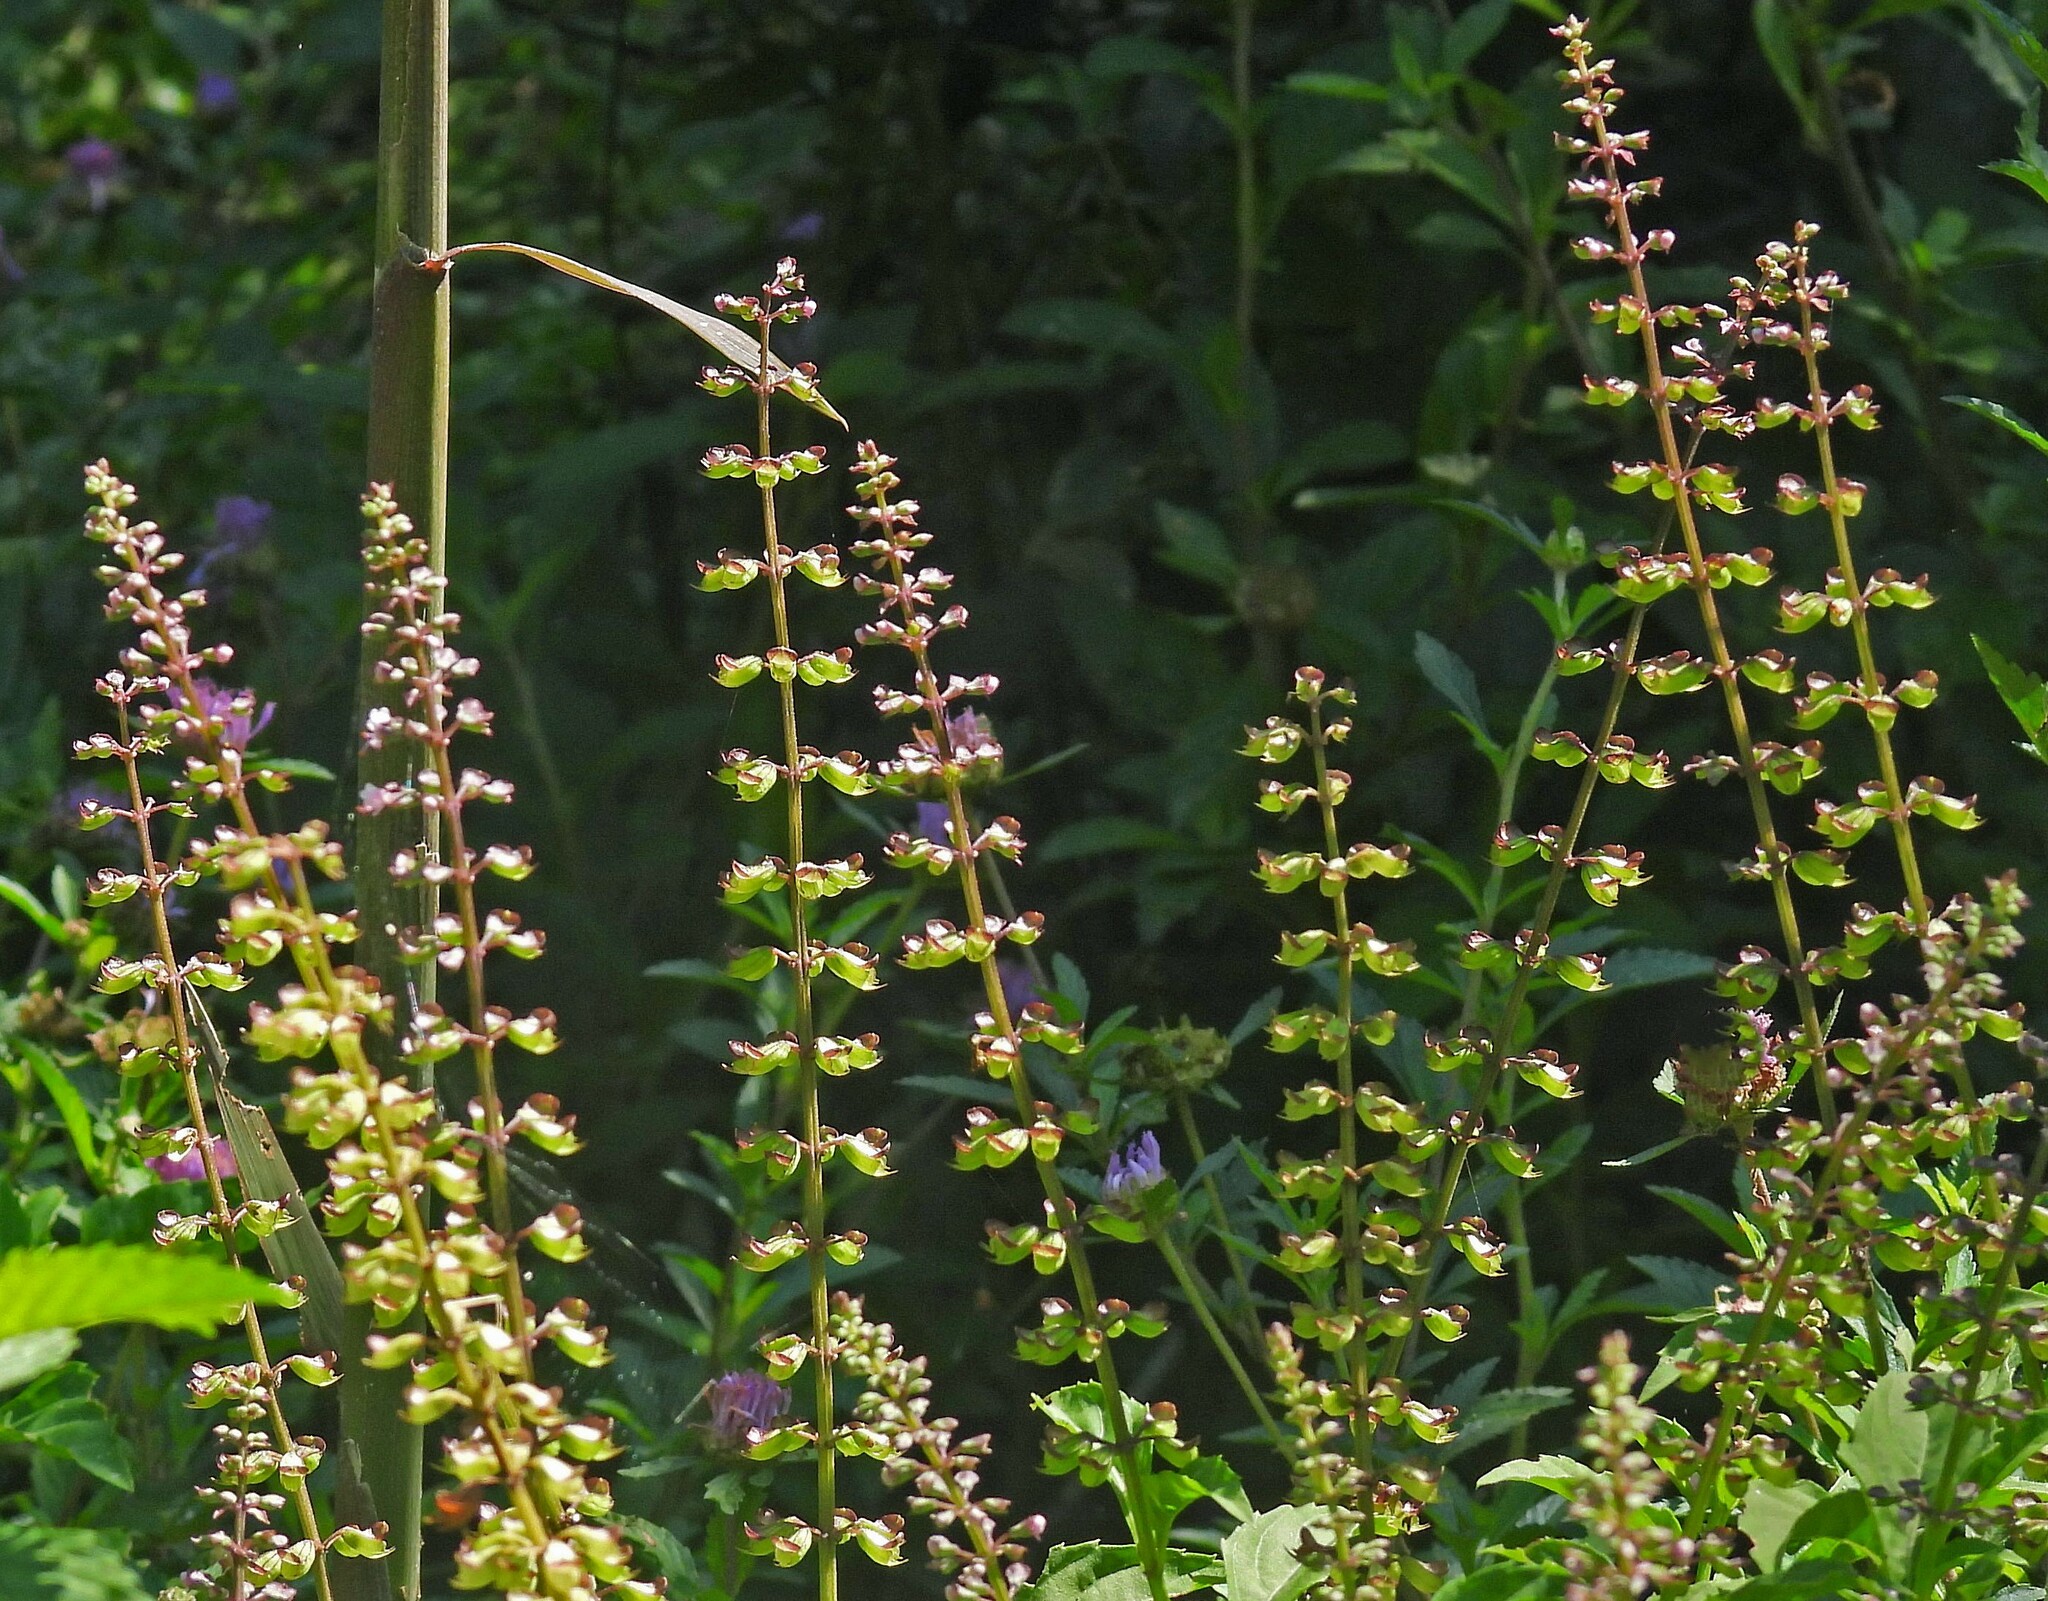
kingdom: Plantae
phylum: Tracheophyta
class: Magnoliopsida
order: Lamiales
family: Lamiaceae
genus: Ocimum
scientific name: Ocimum carnosum
